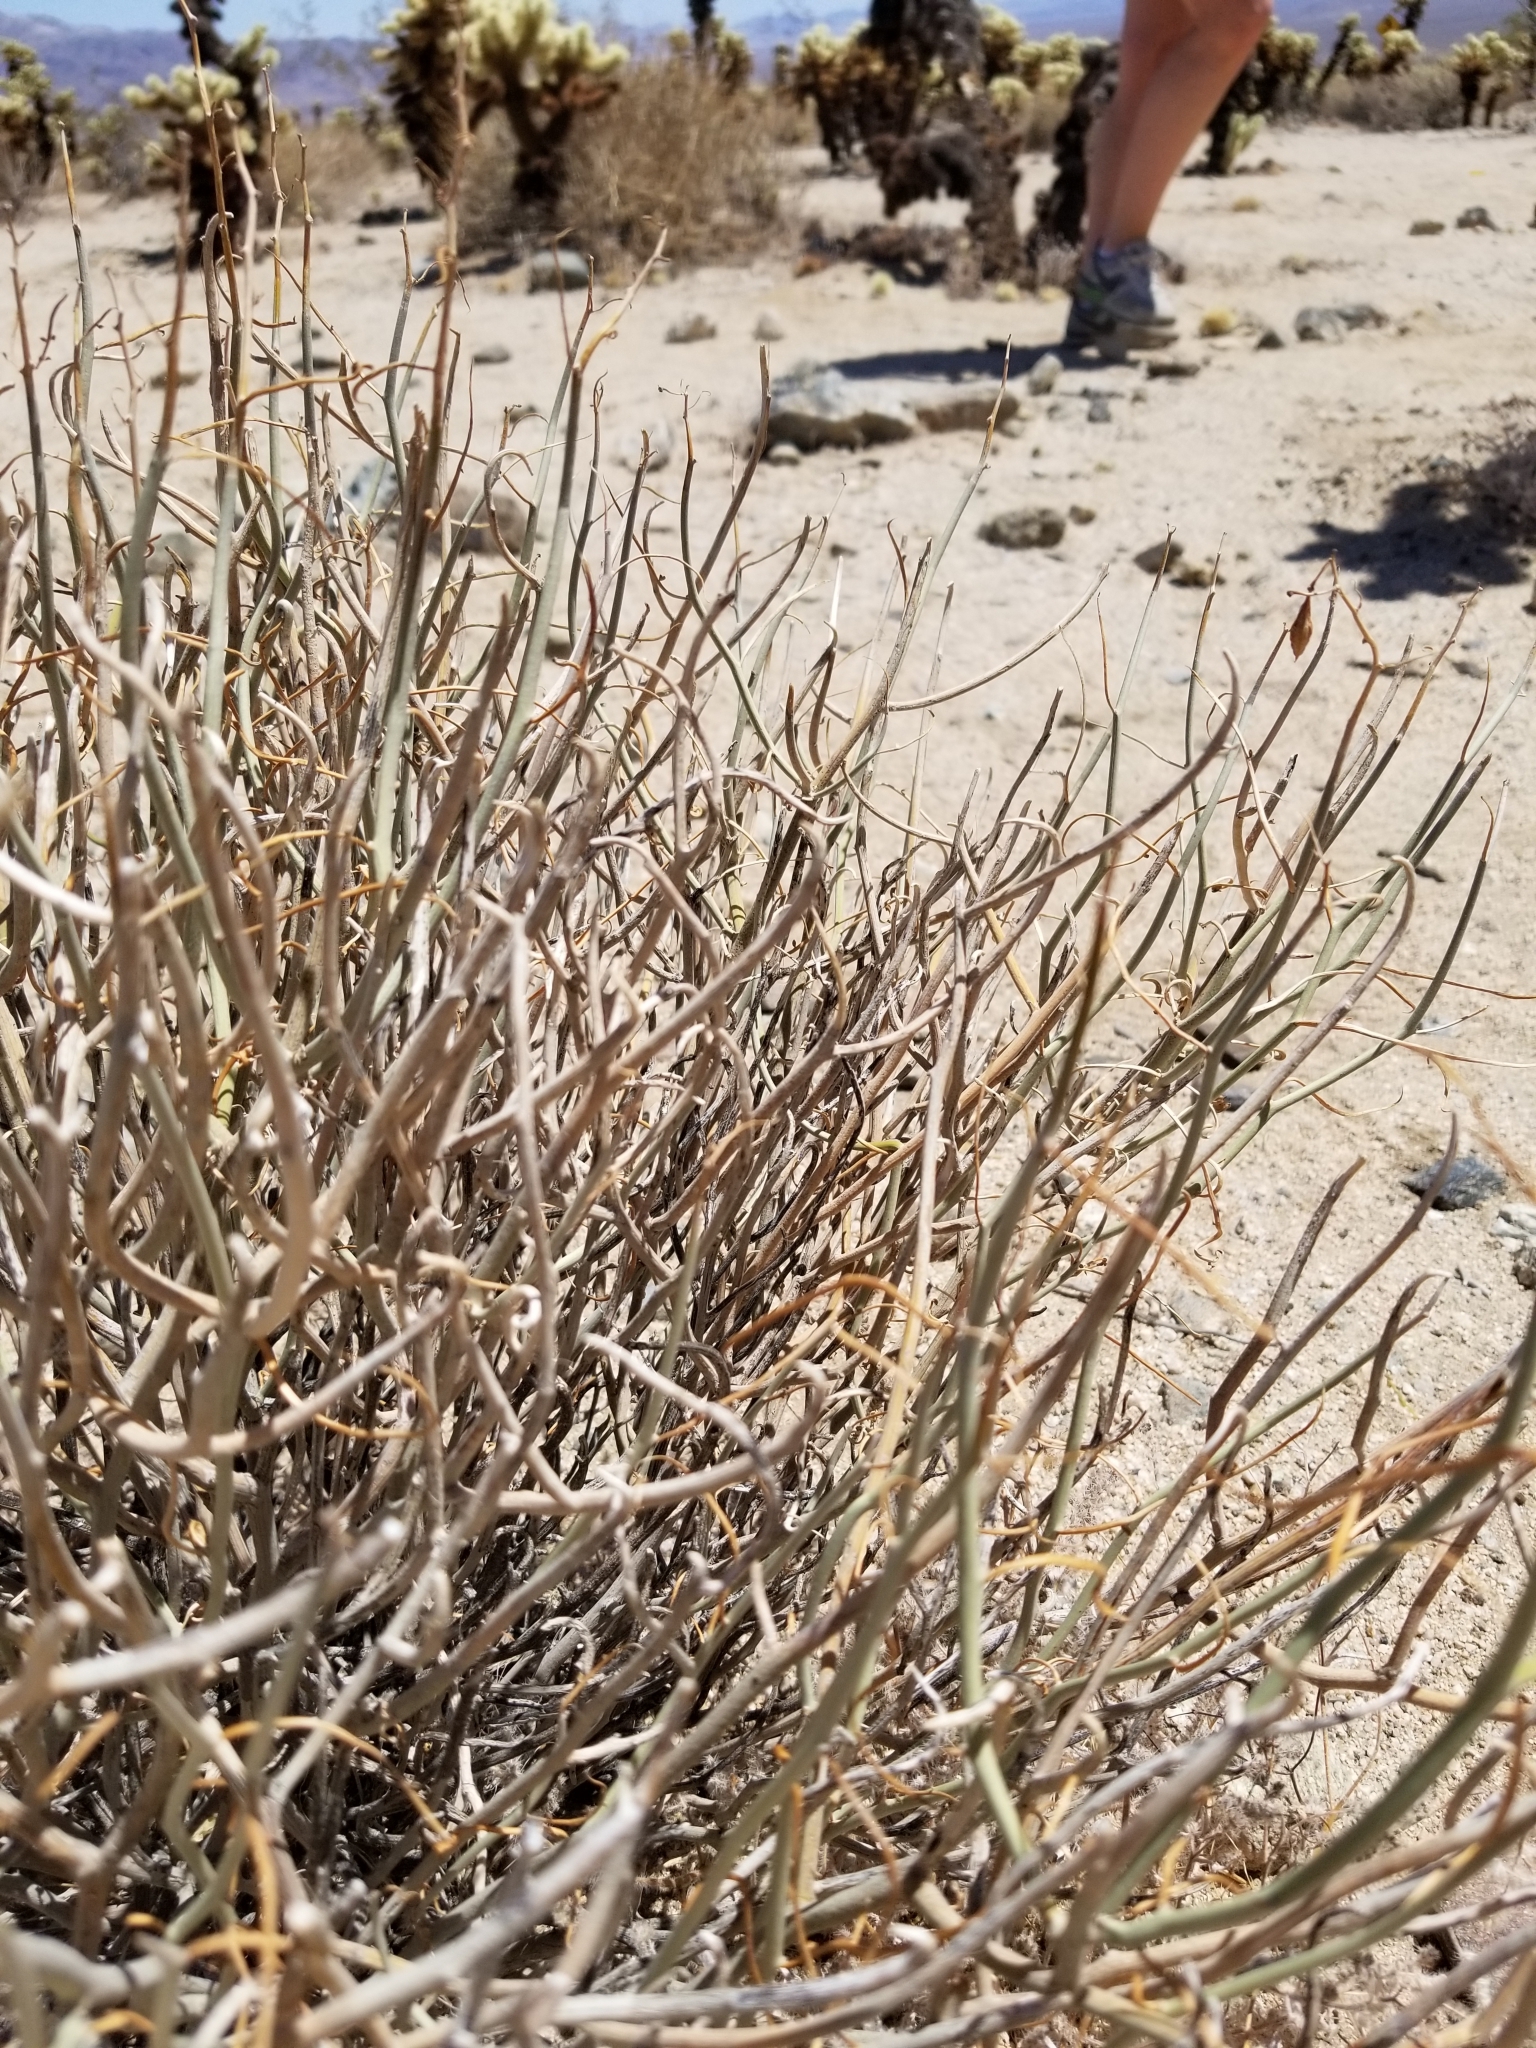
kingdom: Plantae
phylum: Tracheophyta
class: Magnoliopsida
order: Fabales
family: Fabaceae
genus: Senna
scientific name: Senna armata
